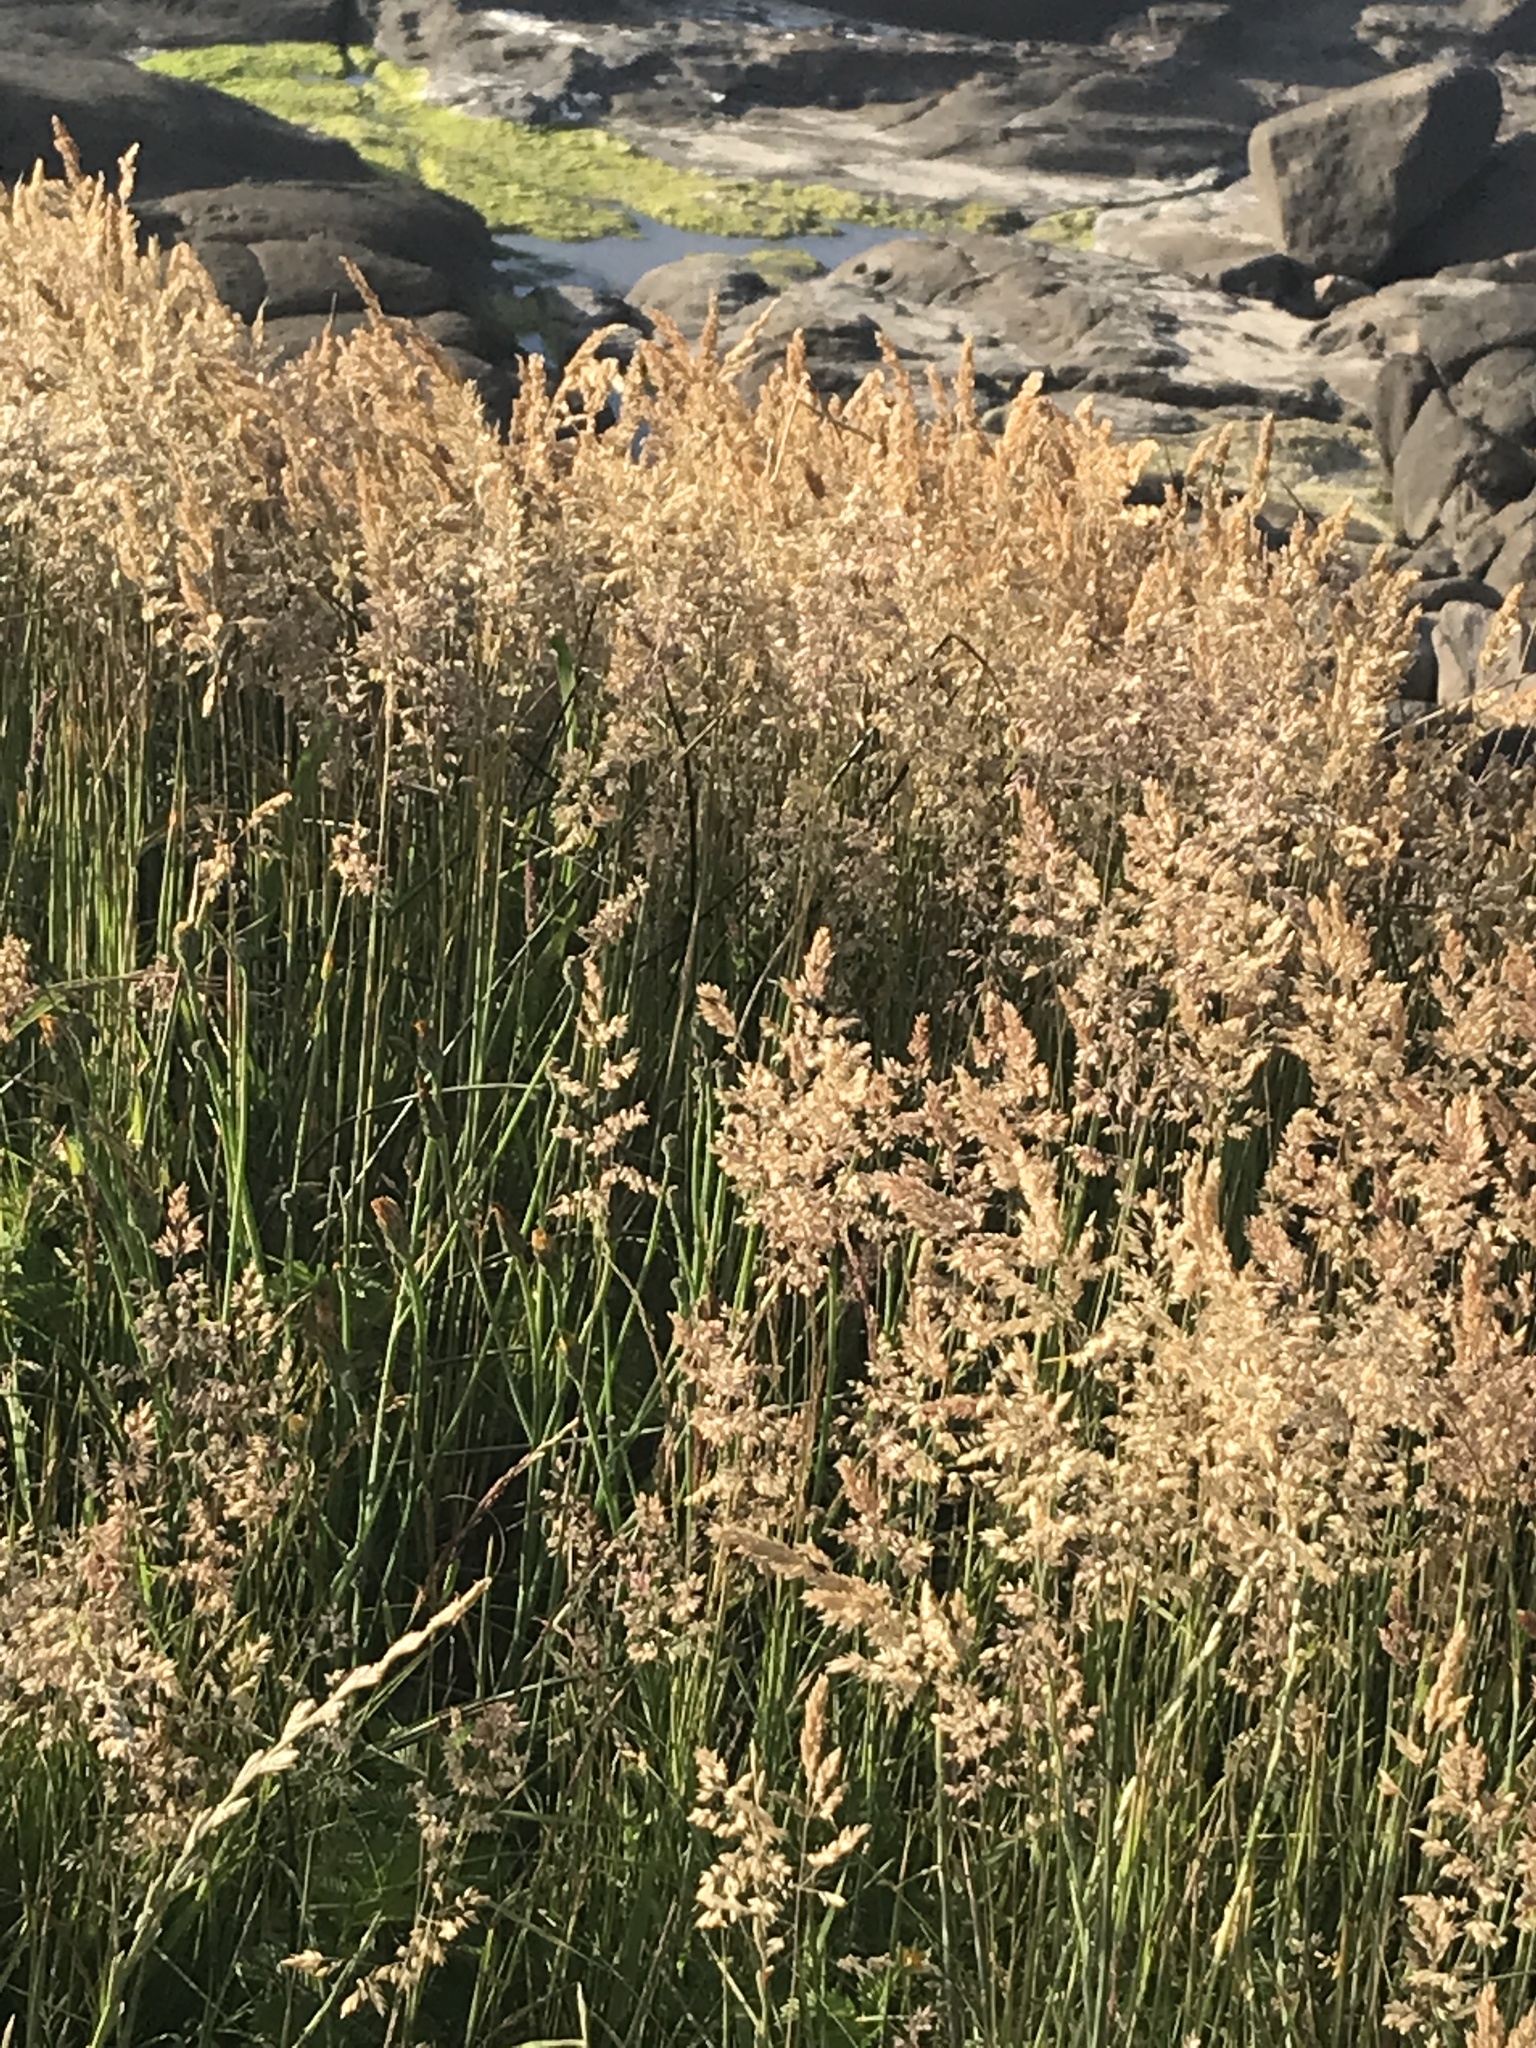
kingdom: Plantae
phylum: Tracheophyta
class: Liliopsida
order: Poales
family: Poaceae
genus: Holcus
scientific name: Holcus lanatus
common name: Yorkshire-fog
